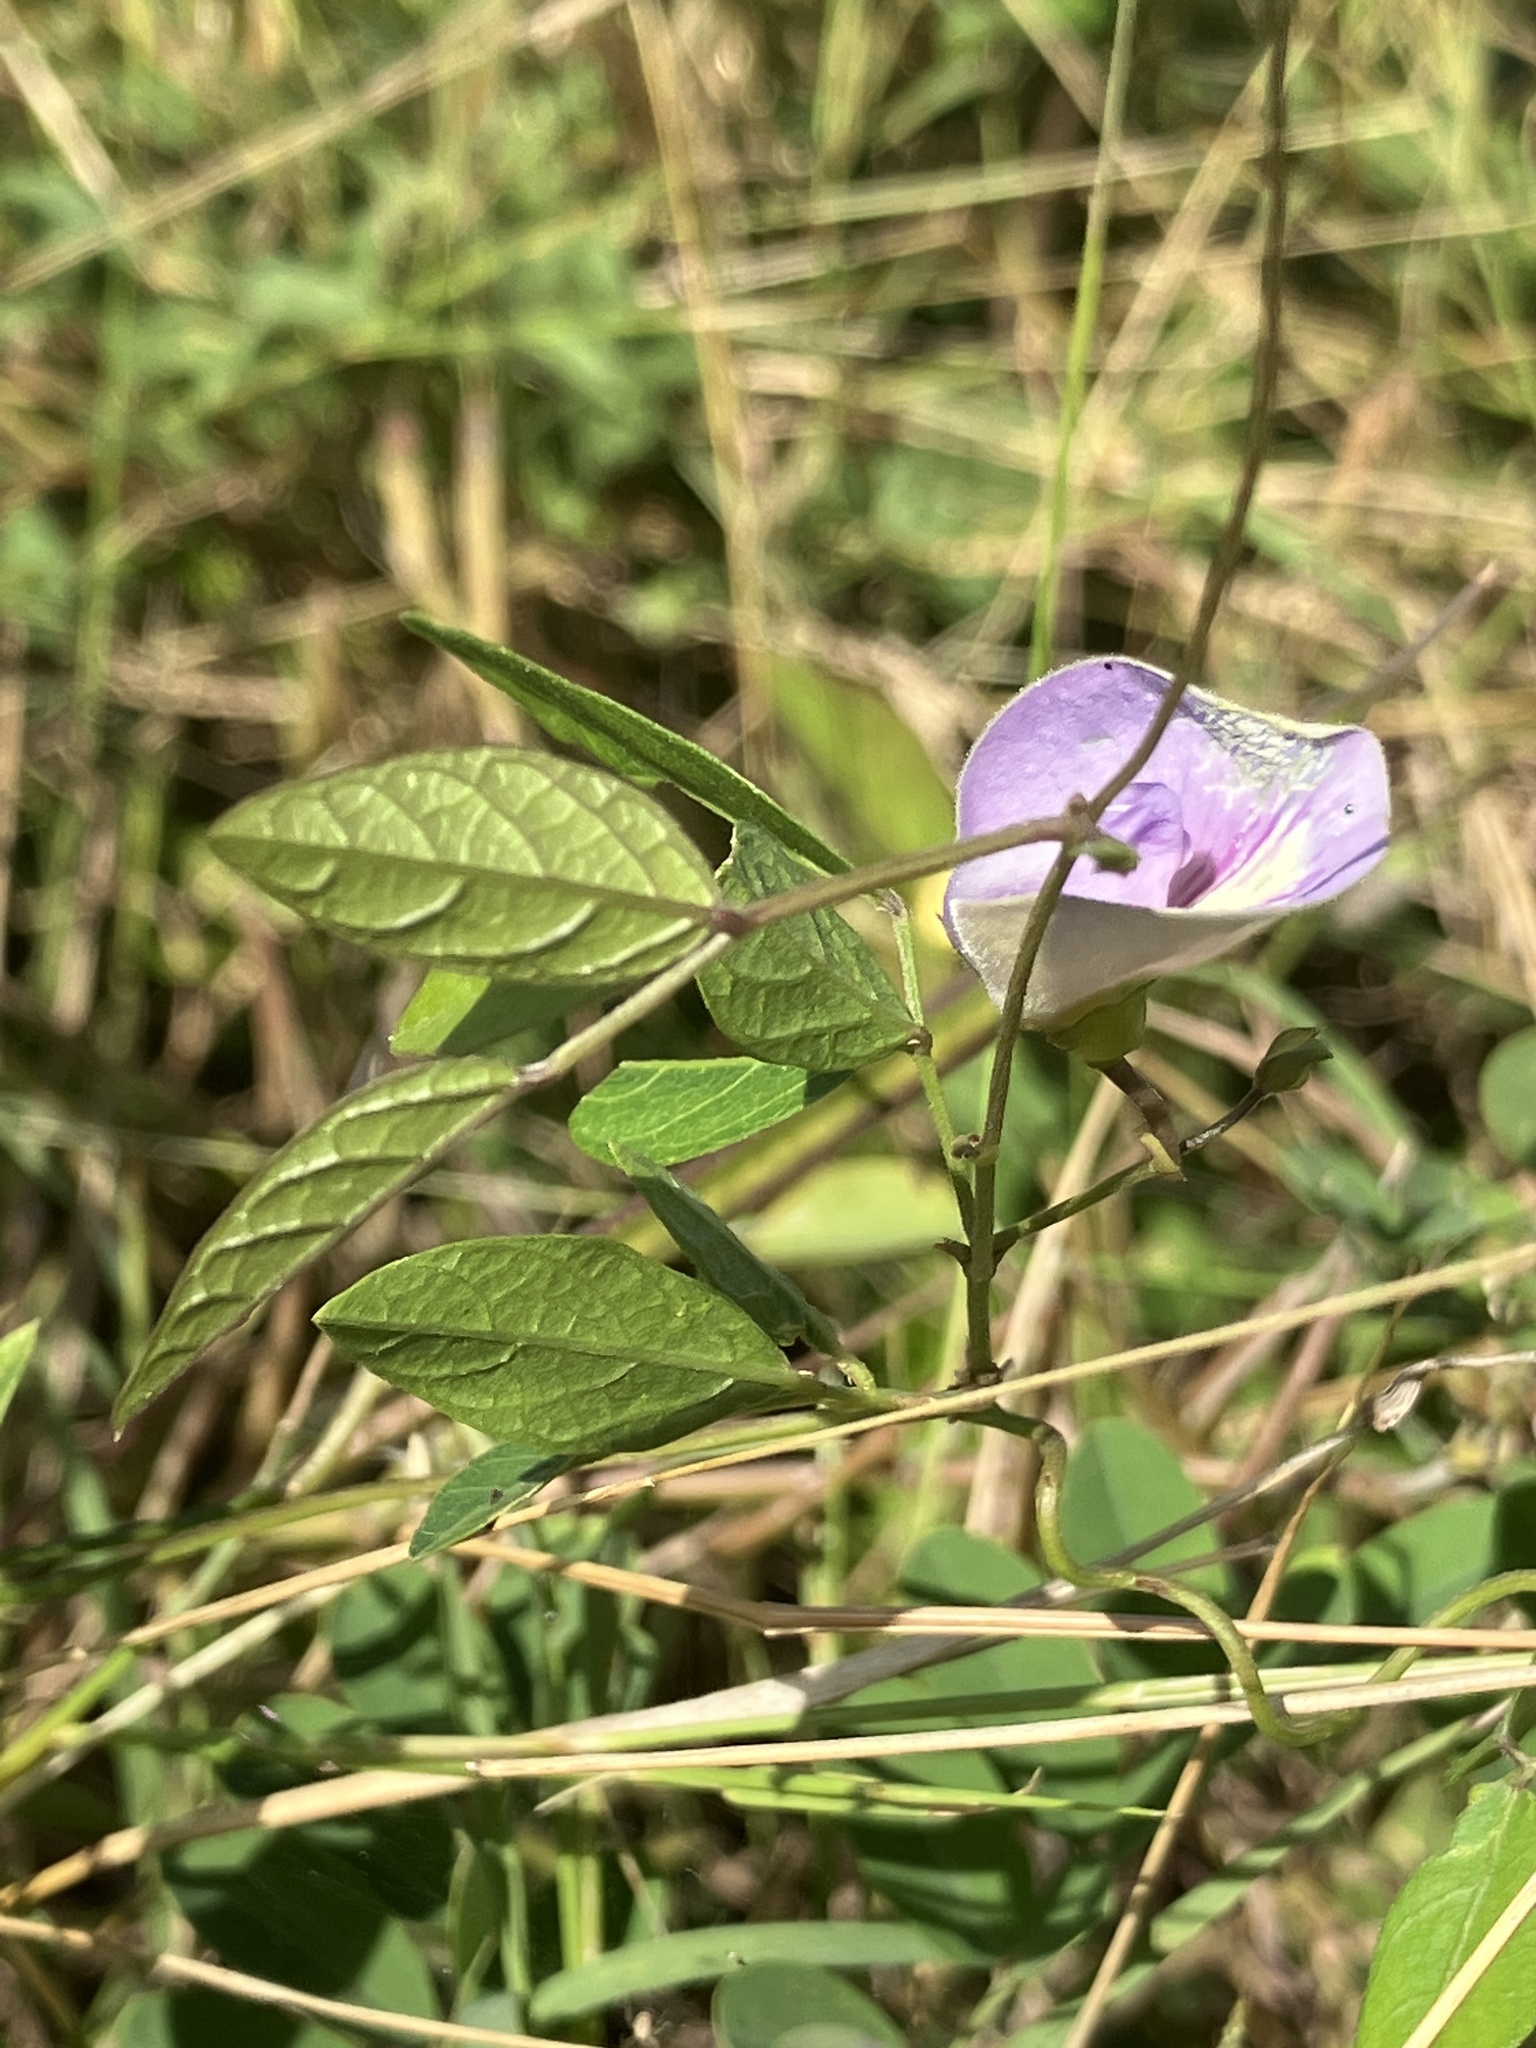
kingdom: Plantae
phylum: Tracheophyta
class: Magnoliopsida
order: Fabales
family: Fabaceae
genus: Centrosema
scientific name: Centrosema virginianum
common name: Butterfly-pea
